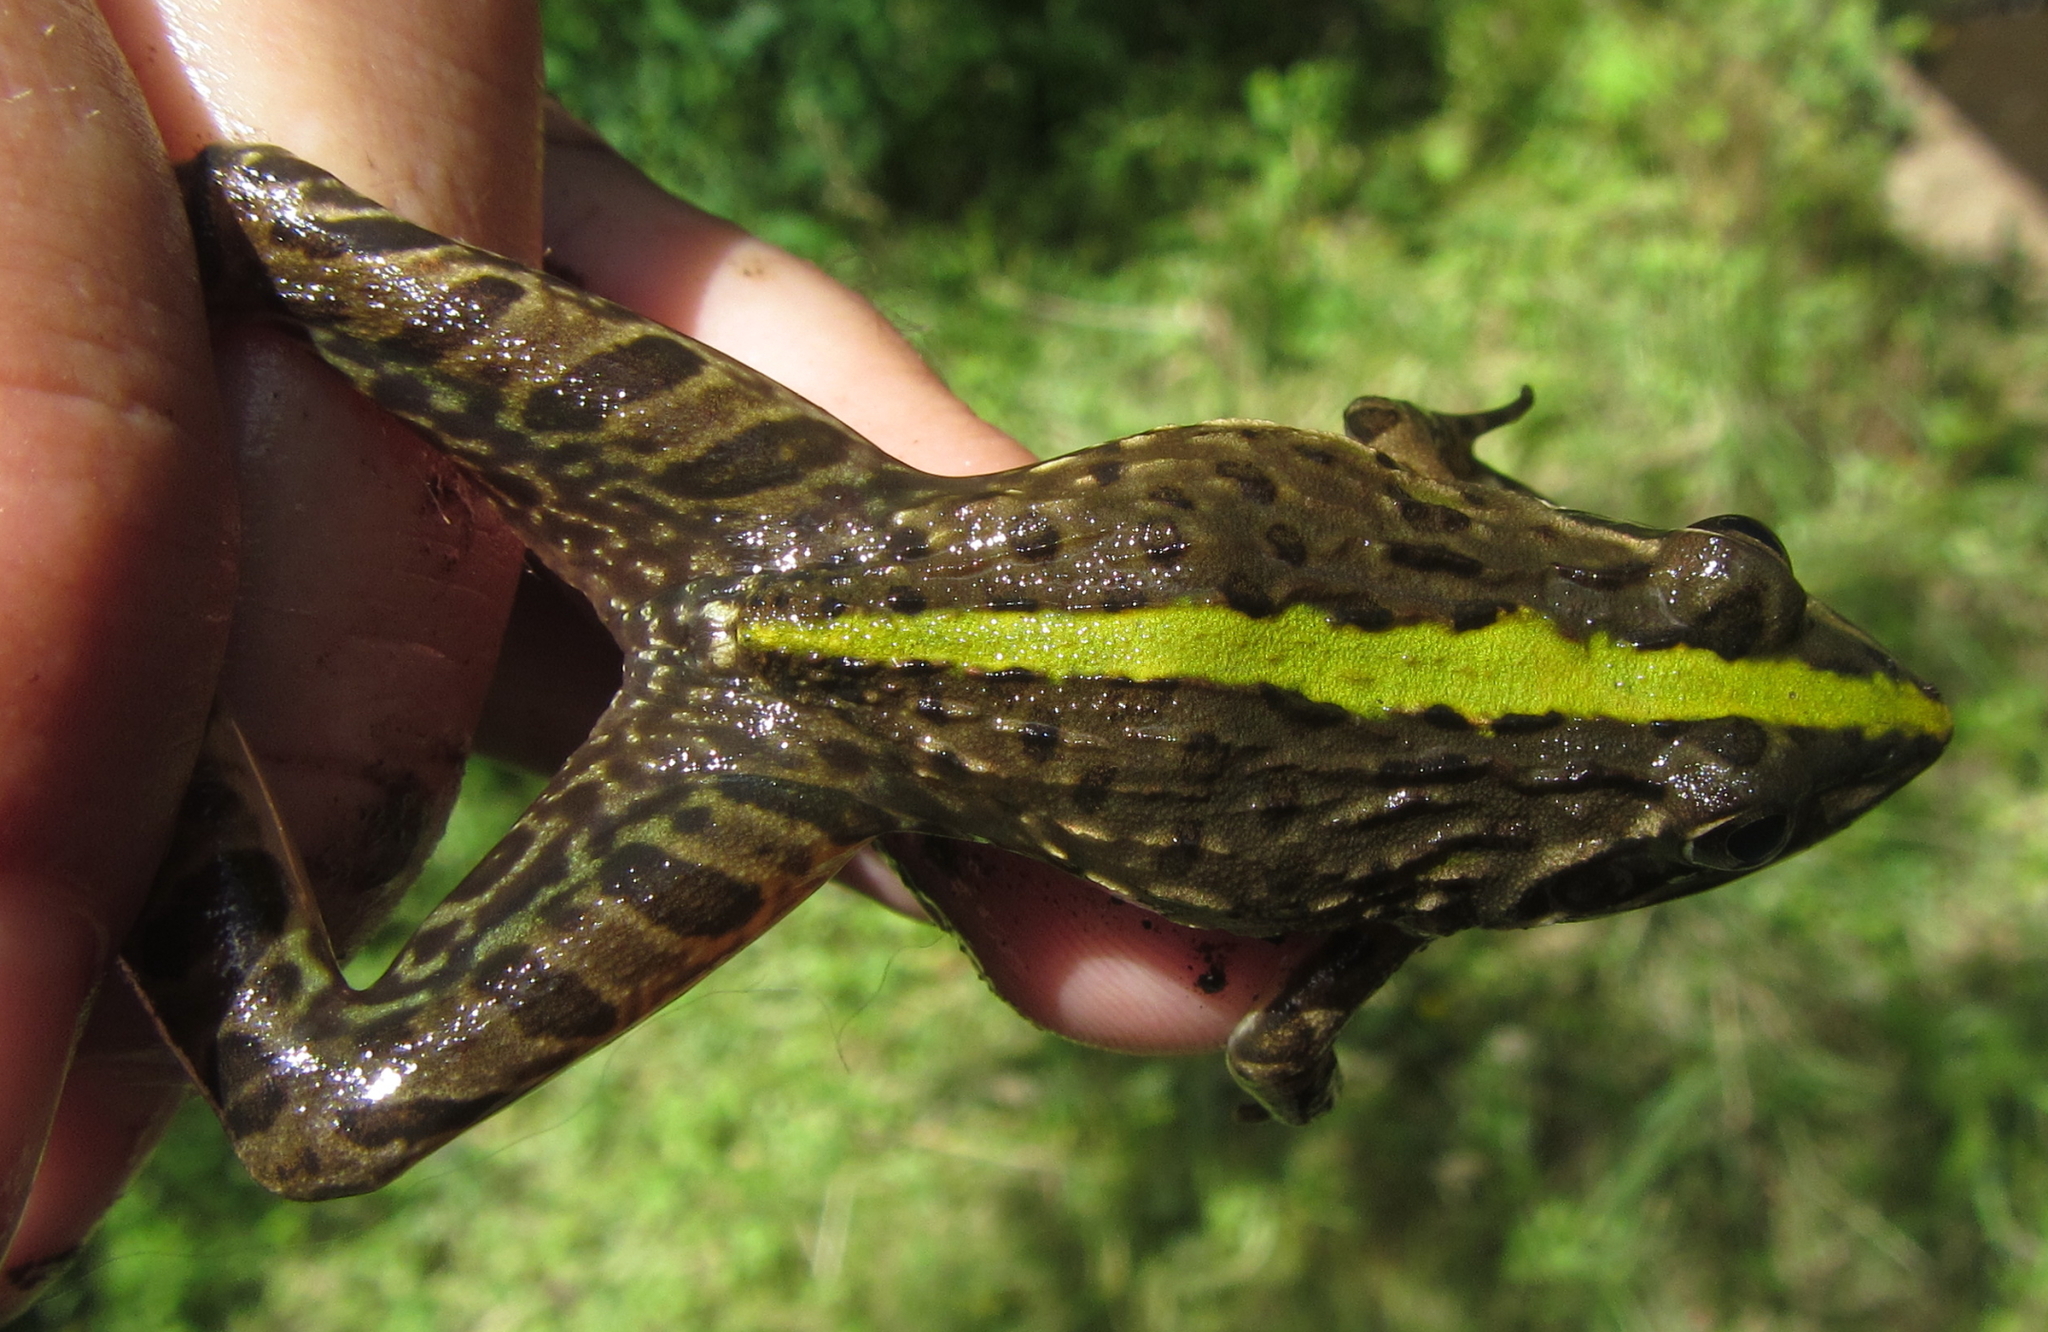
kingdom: Animalia
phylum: Chordata
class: Amphibia
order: Anura
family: Pyxicephalidae
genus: Amietia
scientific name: Amietia delalandii
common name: Delalande's river frog
